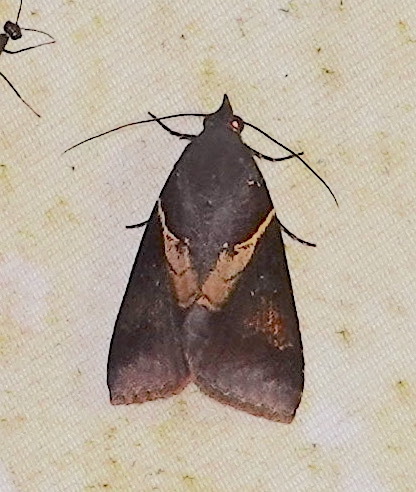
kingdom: Animalia
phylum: Arthropoda
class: Insecta
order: Lepidoptera
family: Euteliidae
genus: Lophoptera
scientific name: Lophoptera torrens
